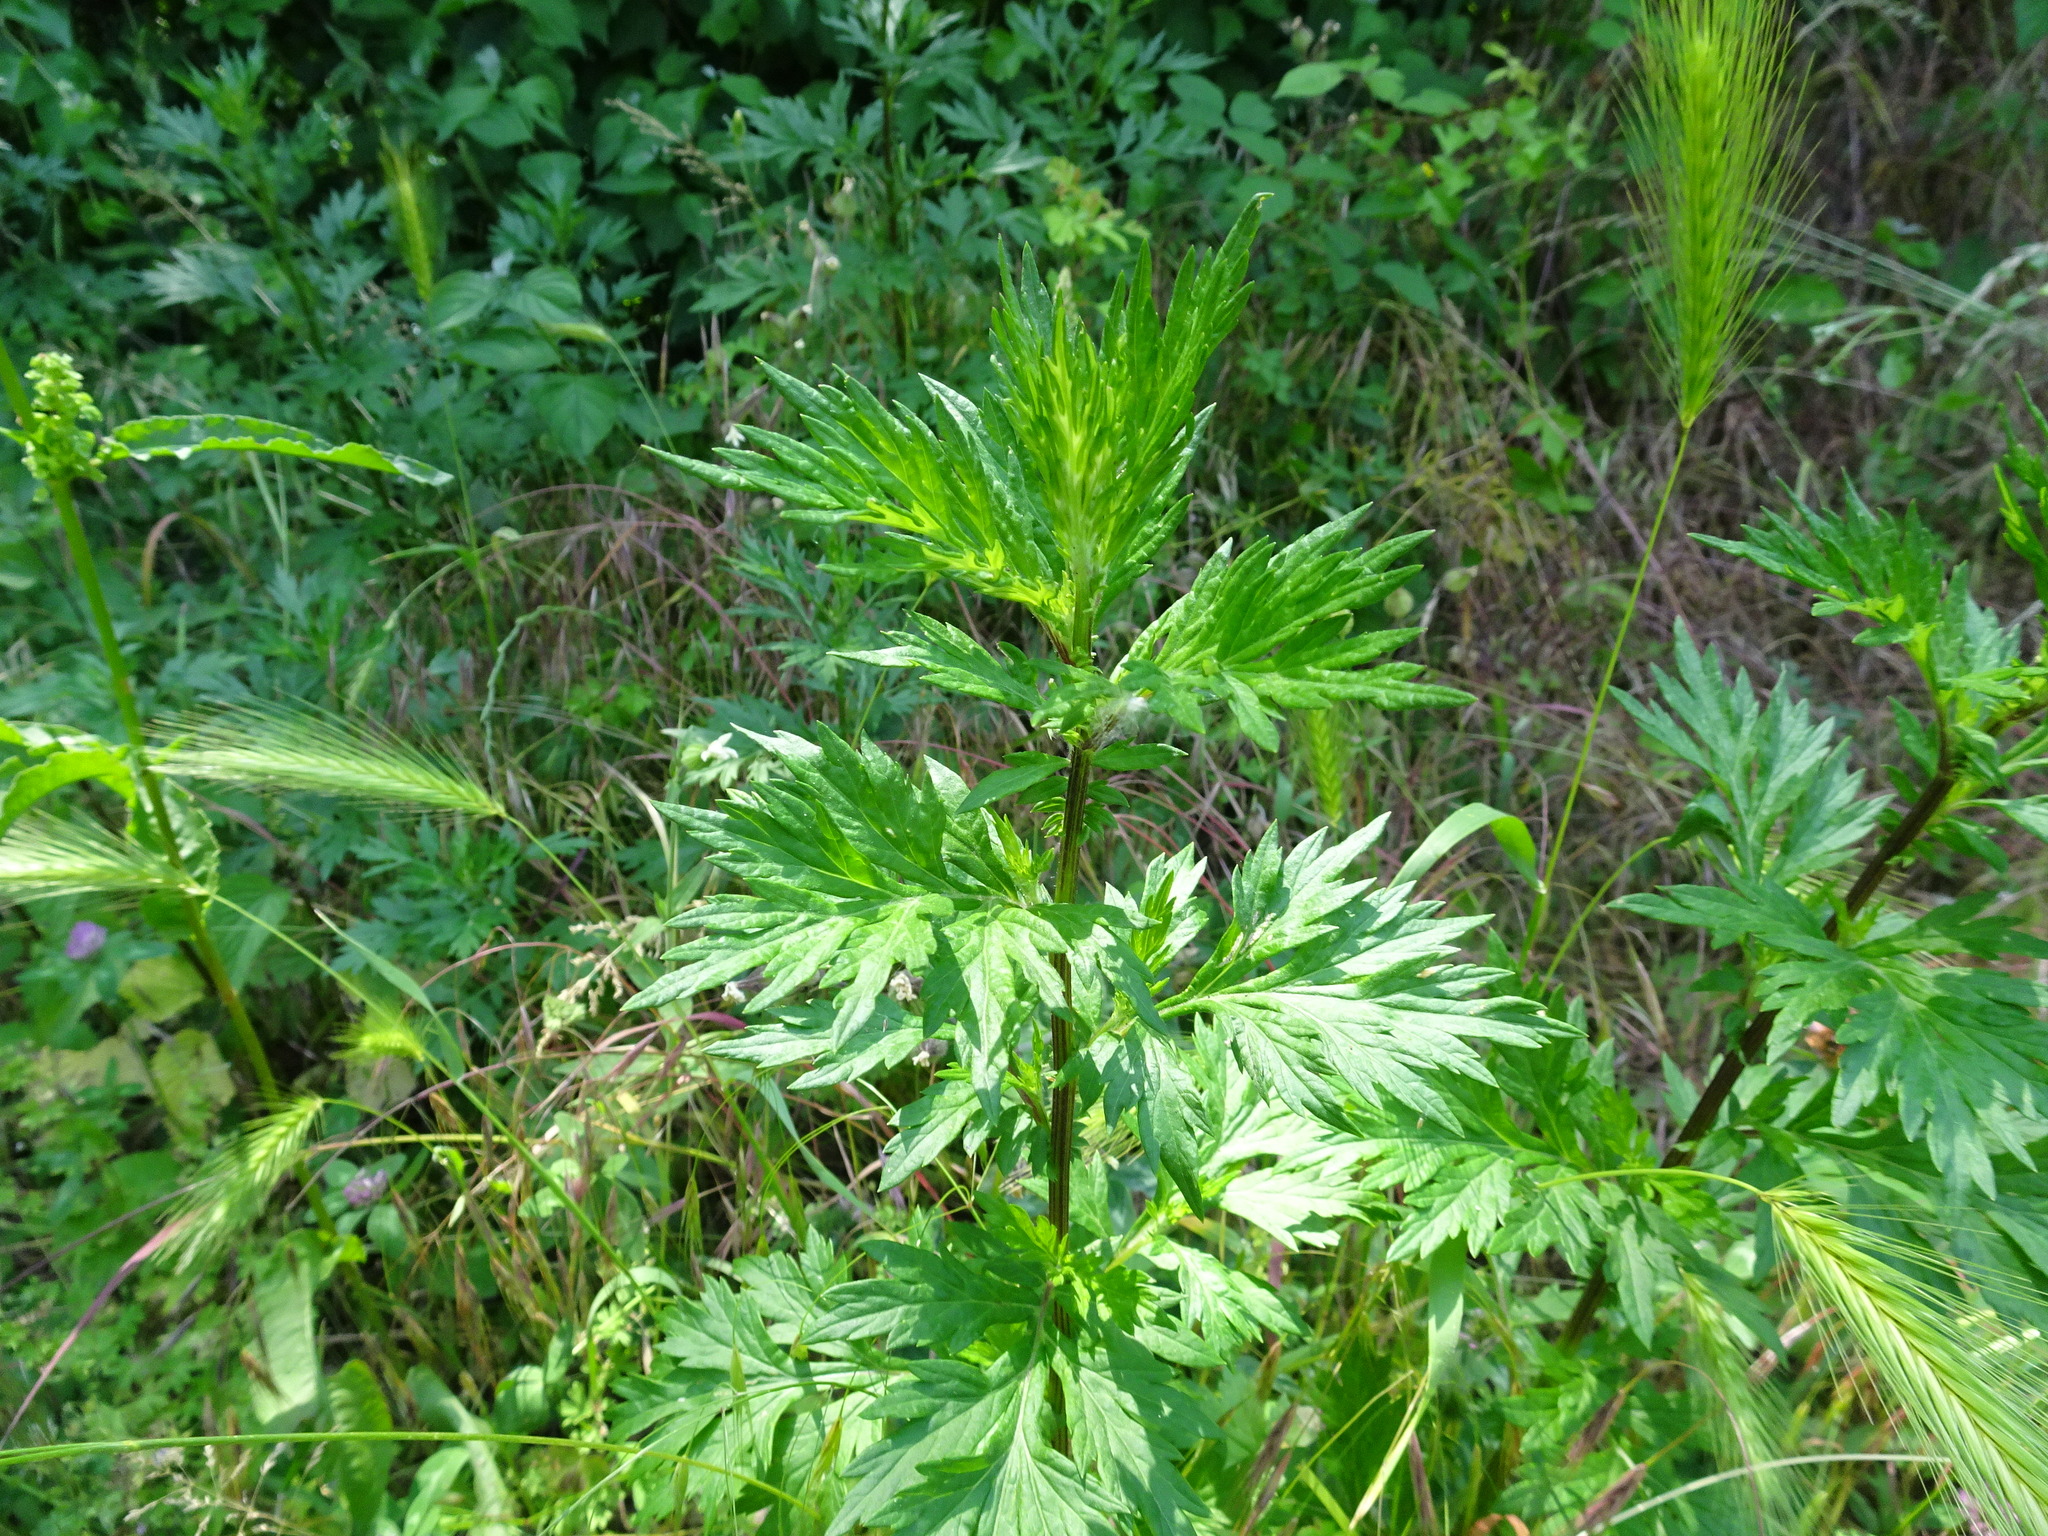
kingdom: Plantae
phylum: Tracheophyta
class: Magnoliopsida
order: Asterales
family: Asteraceae
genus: Artemisia
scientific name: Artemisia vulgaris
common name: Mugwort
